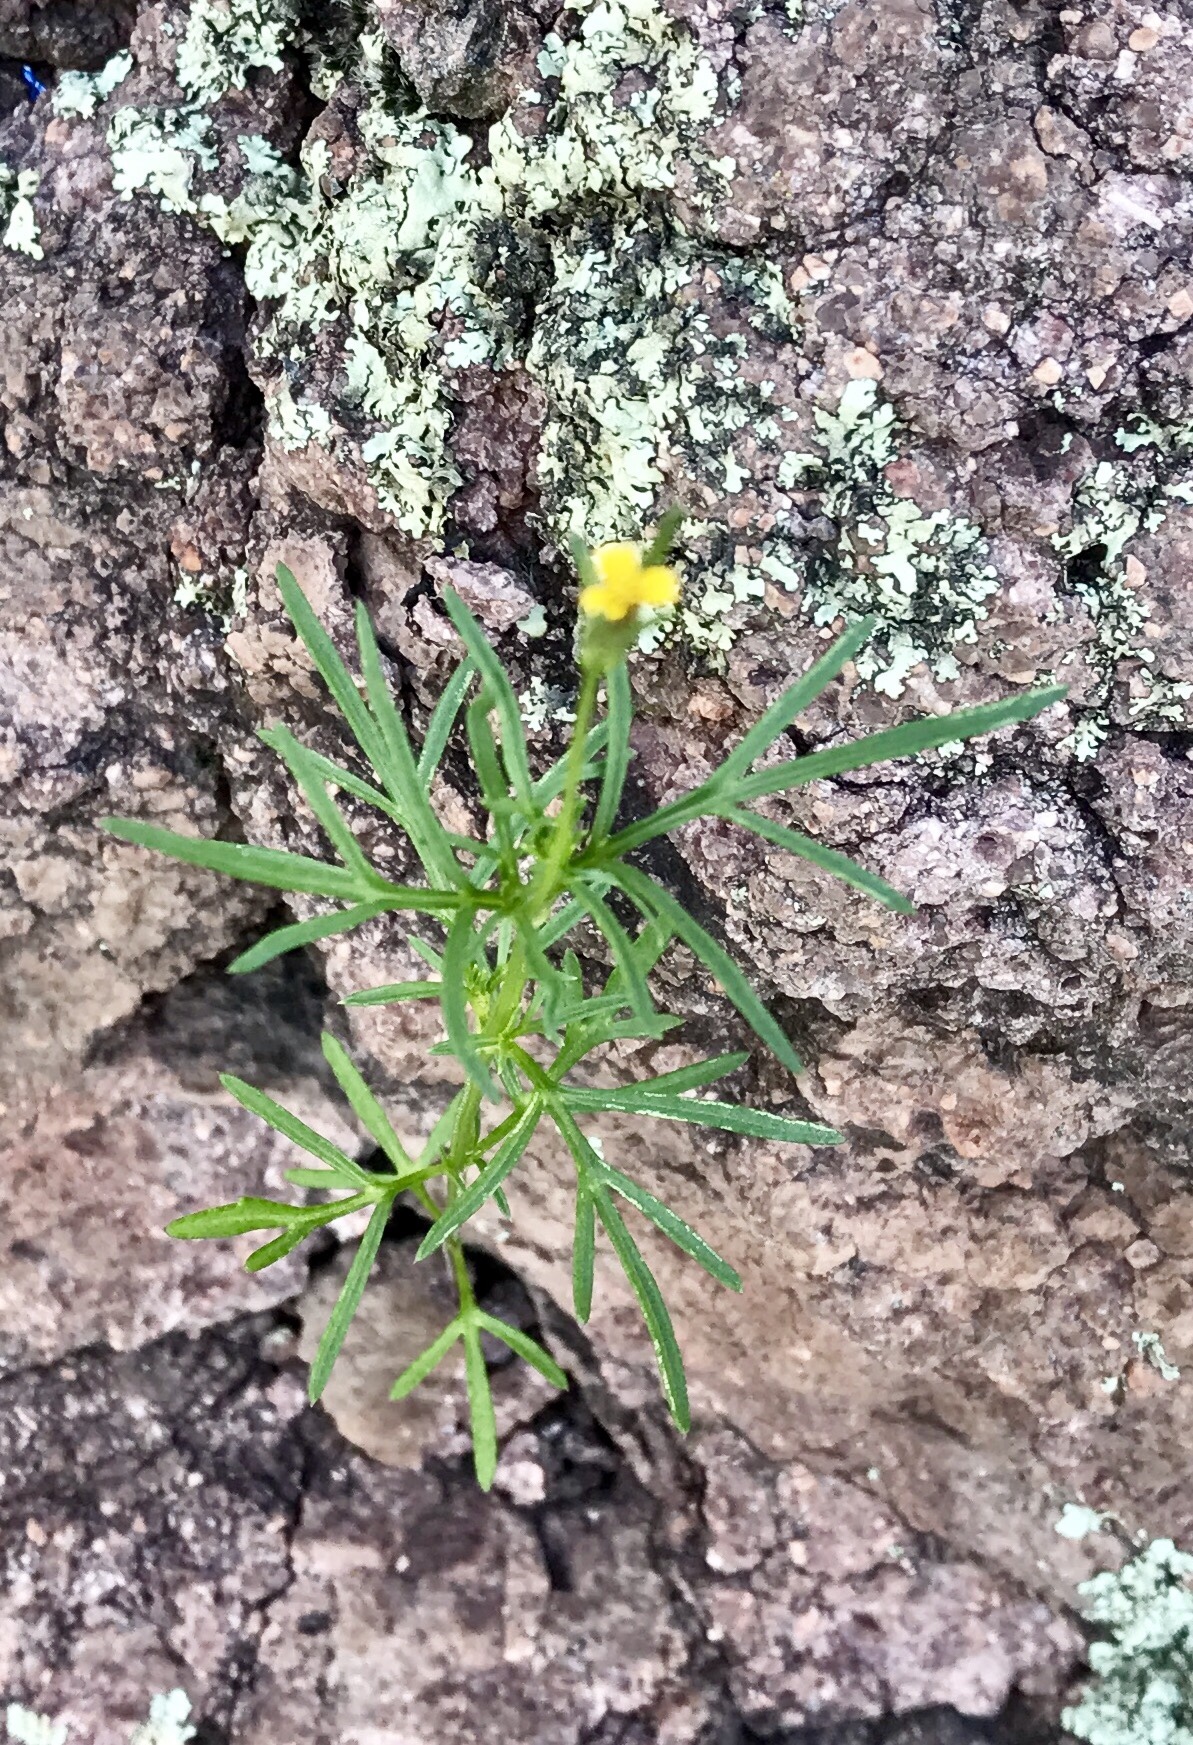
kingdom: Plantae
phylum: Tracheophyta
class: Magnoliopsida
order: Asterales
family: Asteraceae
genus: Heterosperma
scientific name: Heterosperma pinnatum
